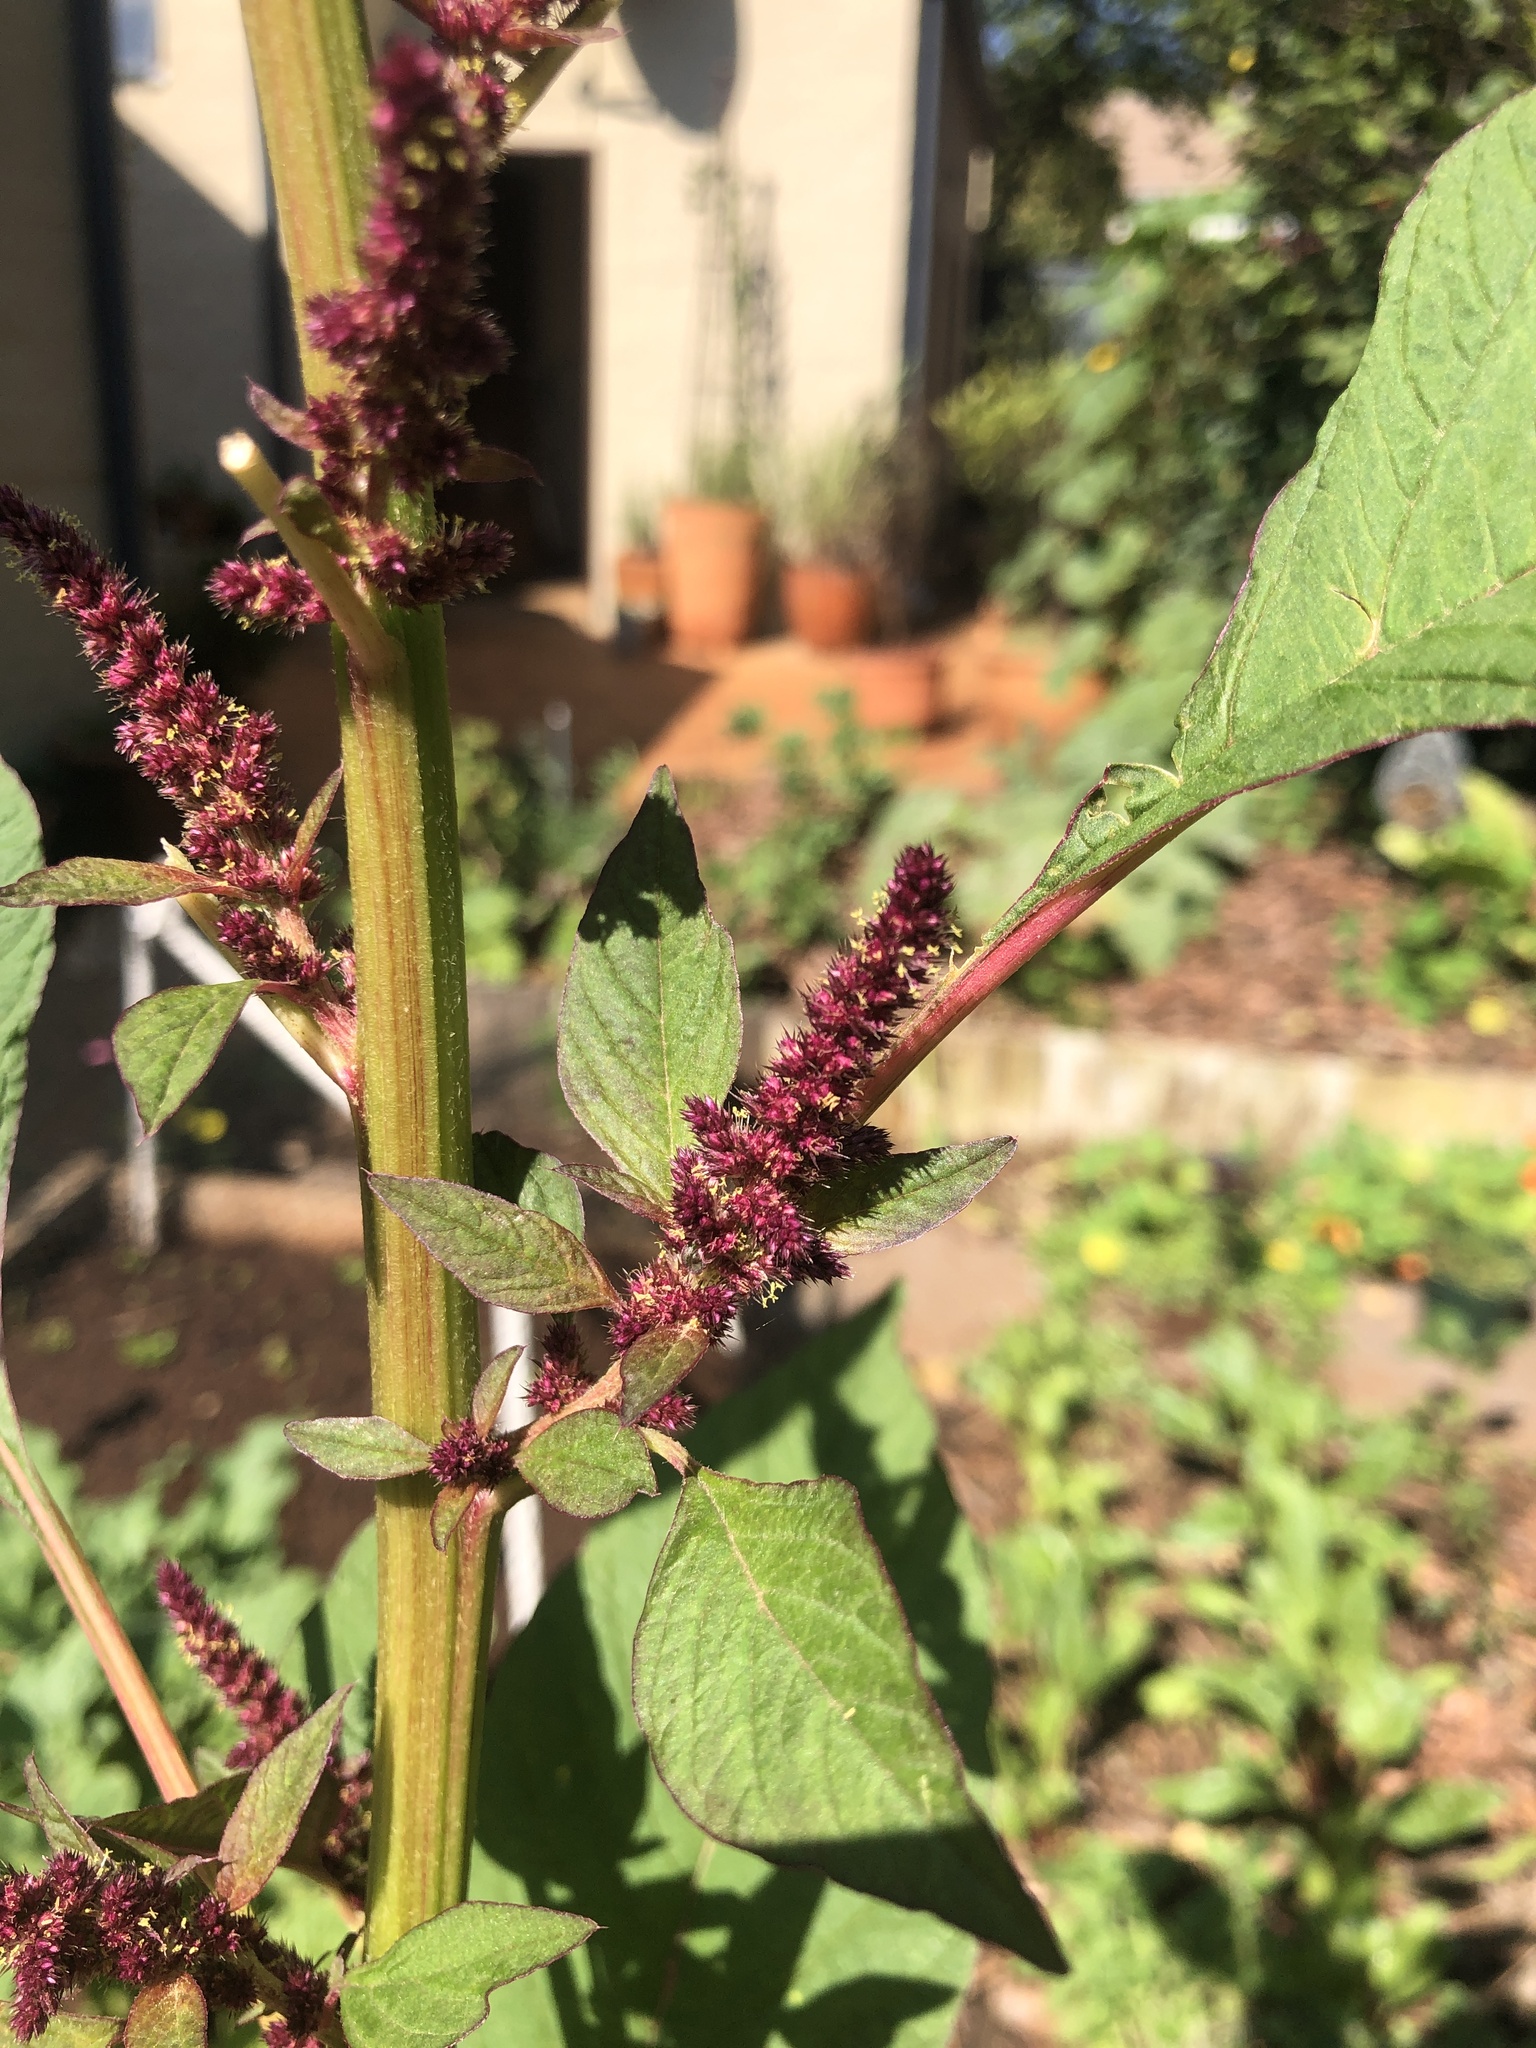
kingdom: Plantae
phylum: Tracheophyta
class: Magnoliopsida
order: Caryophyllales
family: Amaranthaceae
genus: Amaranthus
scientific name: Amaranthus cruentus
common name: Purple amaranth
